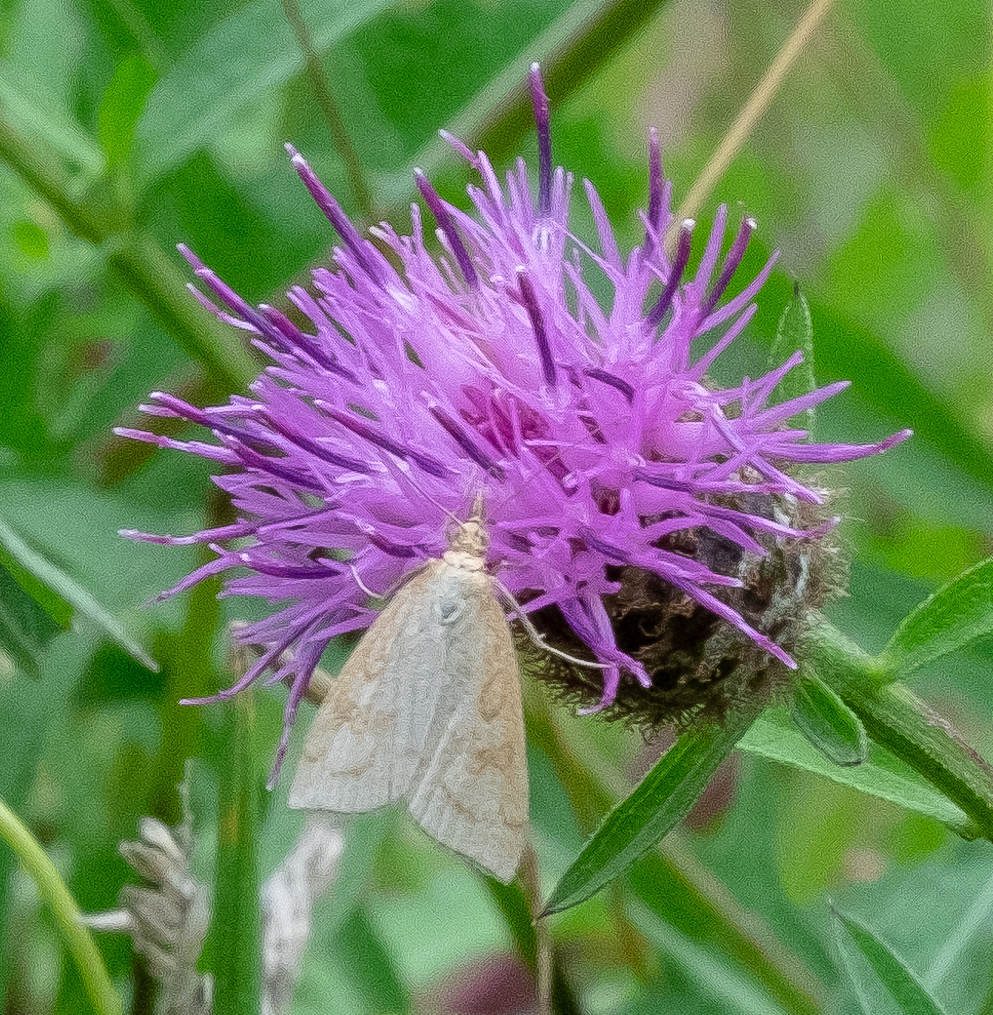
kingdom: Animalia
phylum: Arthropoda
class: Insecta
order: Lepidoptera
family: Crambidae
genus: Udea
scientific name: Udea lutealis
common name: Pale straw pearl
